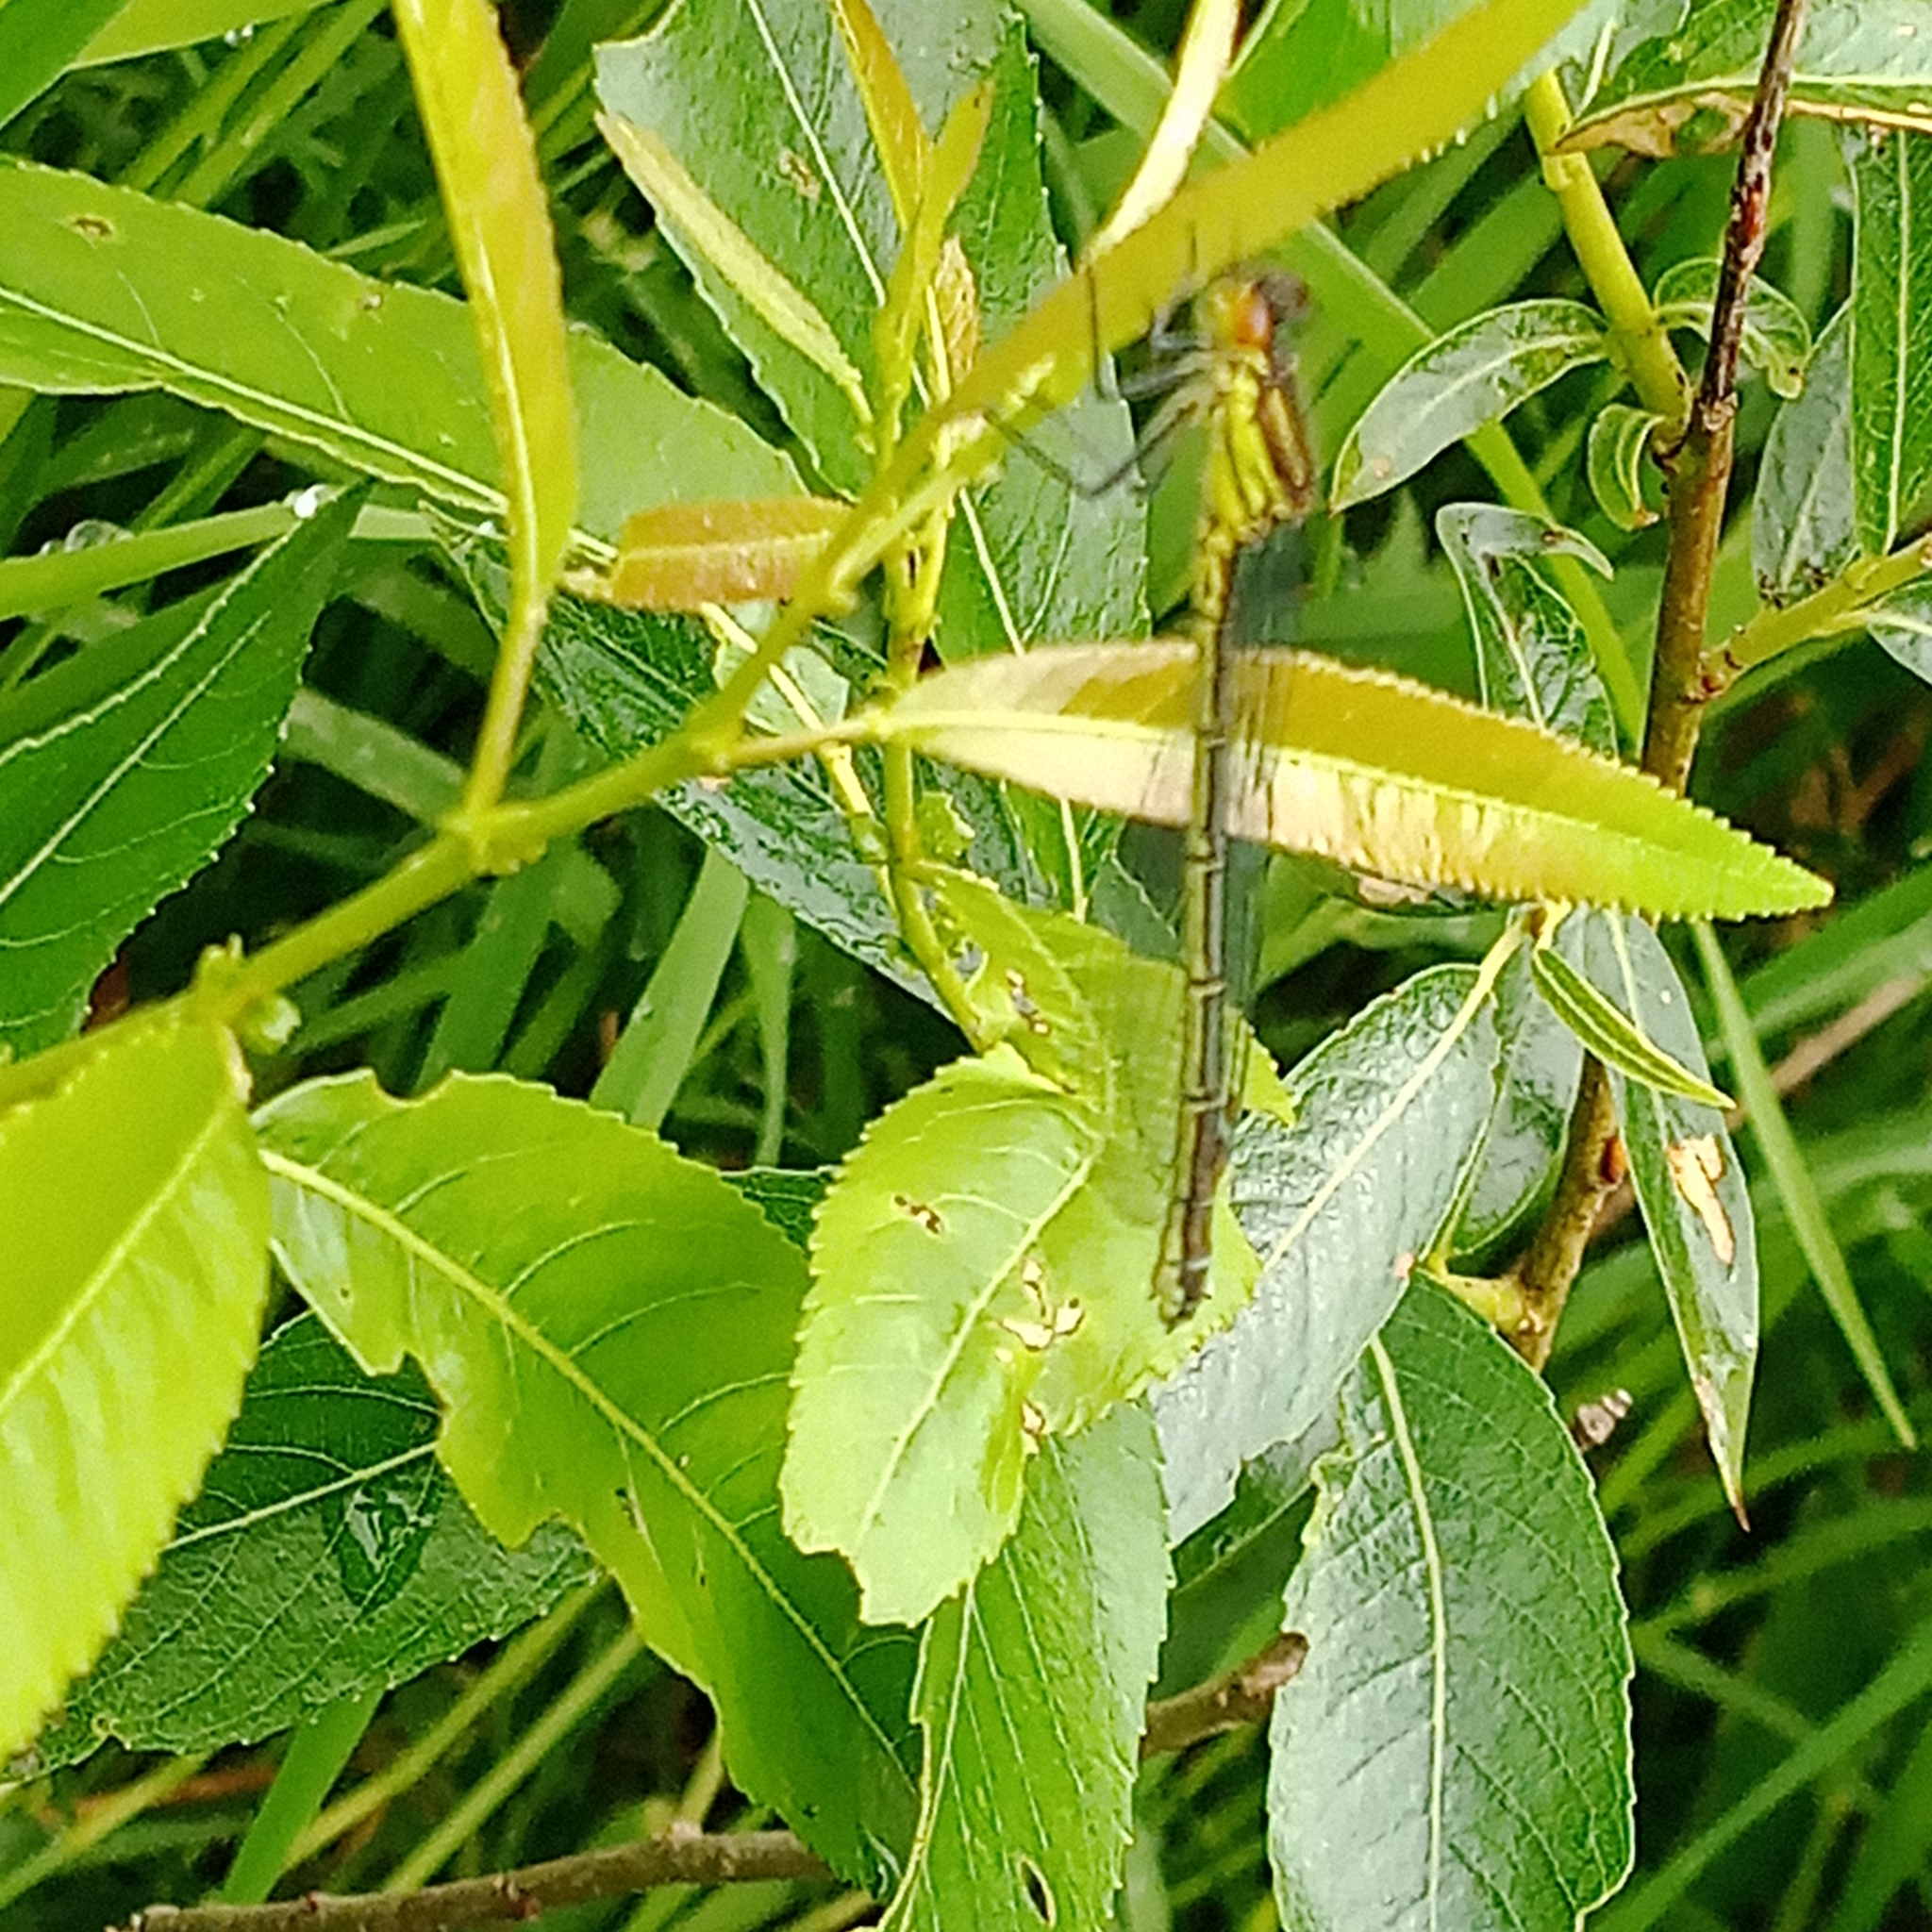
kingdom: Animalia
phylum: Arthropoda
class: Insecta
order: Odonata
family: Coenagrionidae
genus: Erythromma
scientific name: Erythromma najas
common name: Red-eyed damselfly
